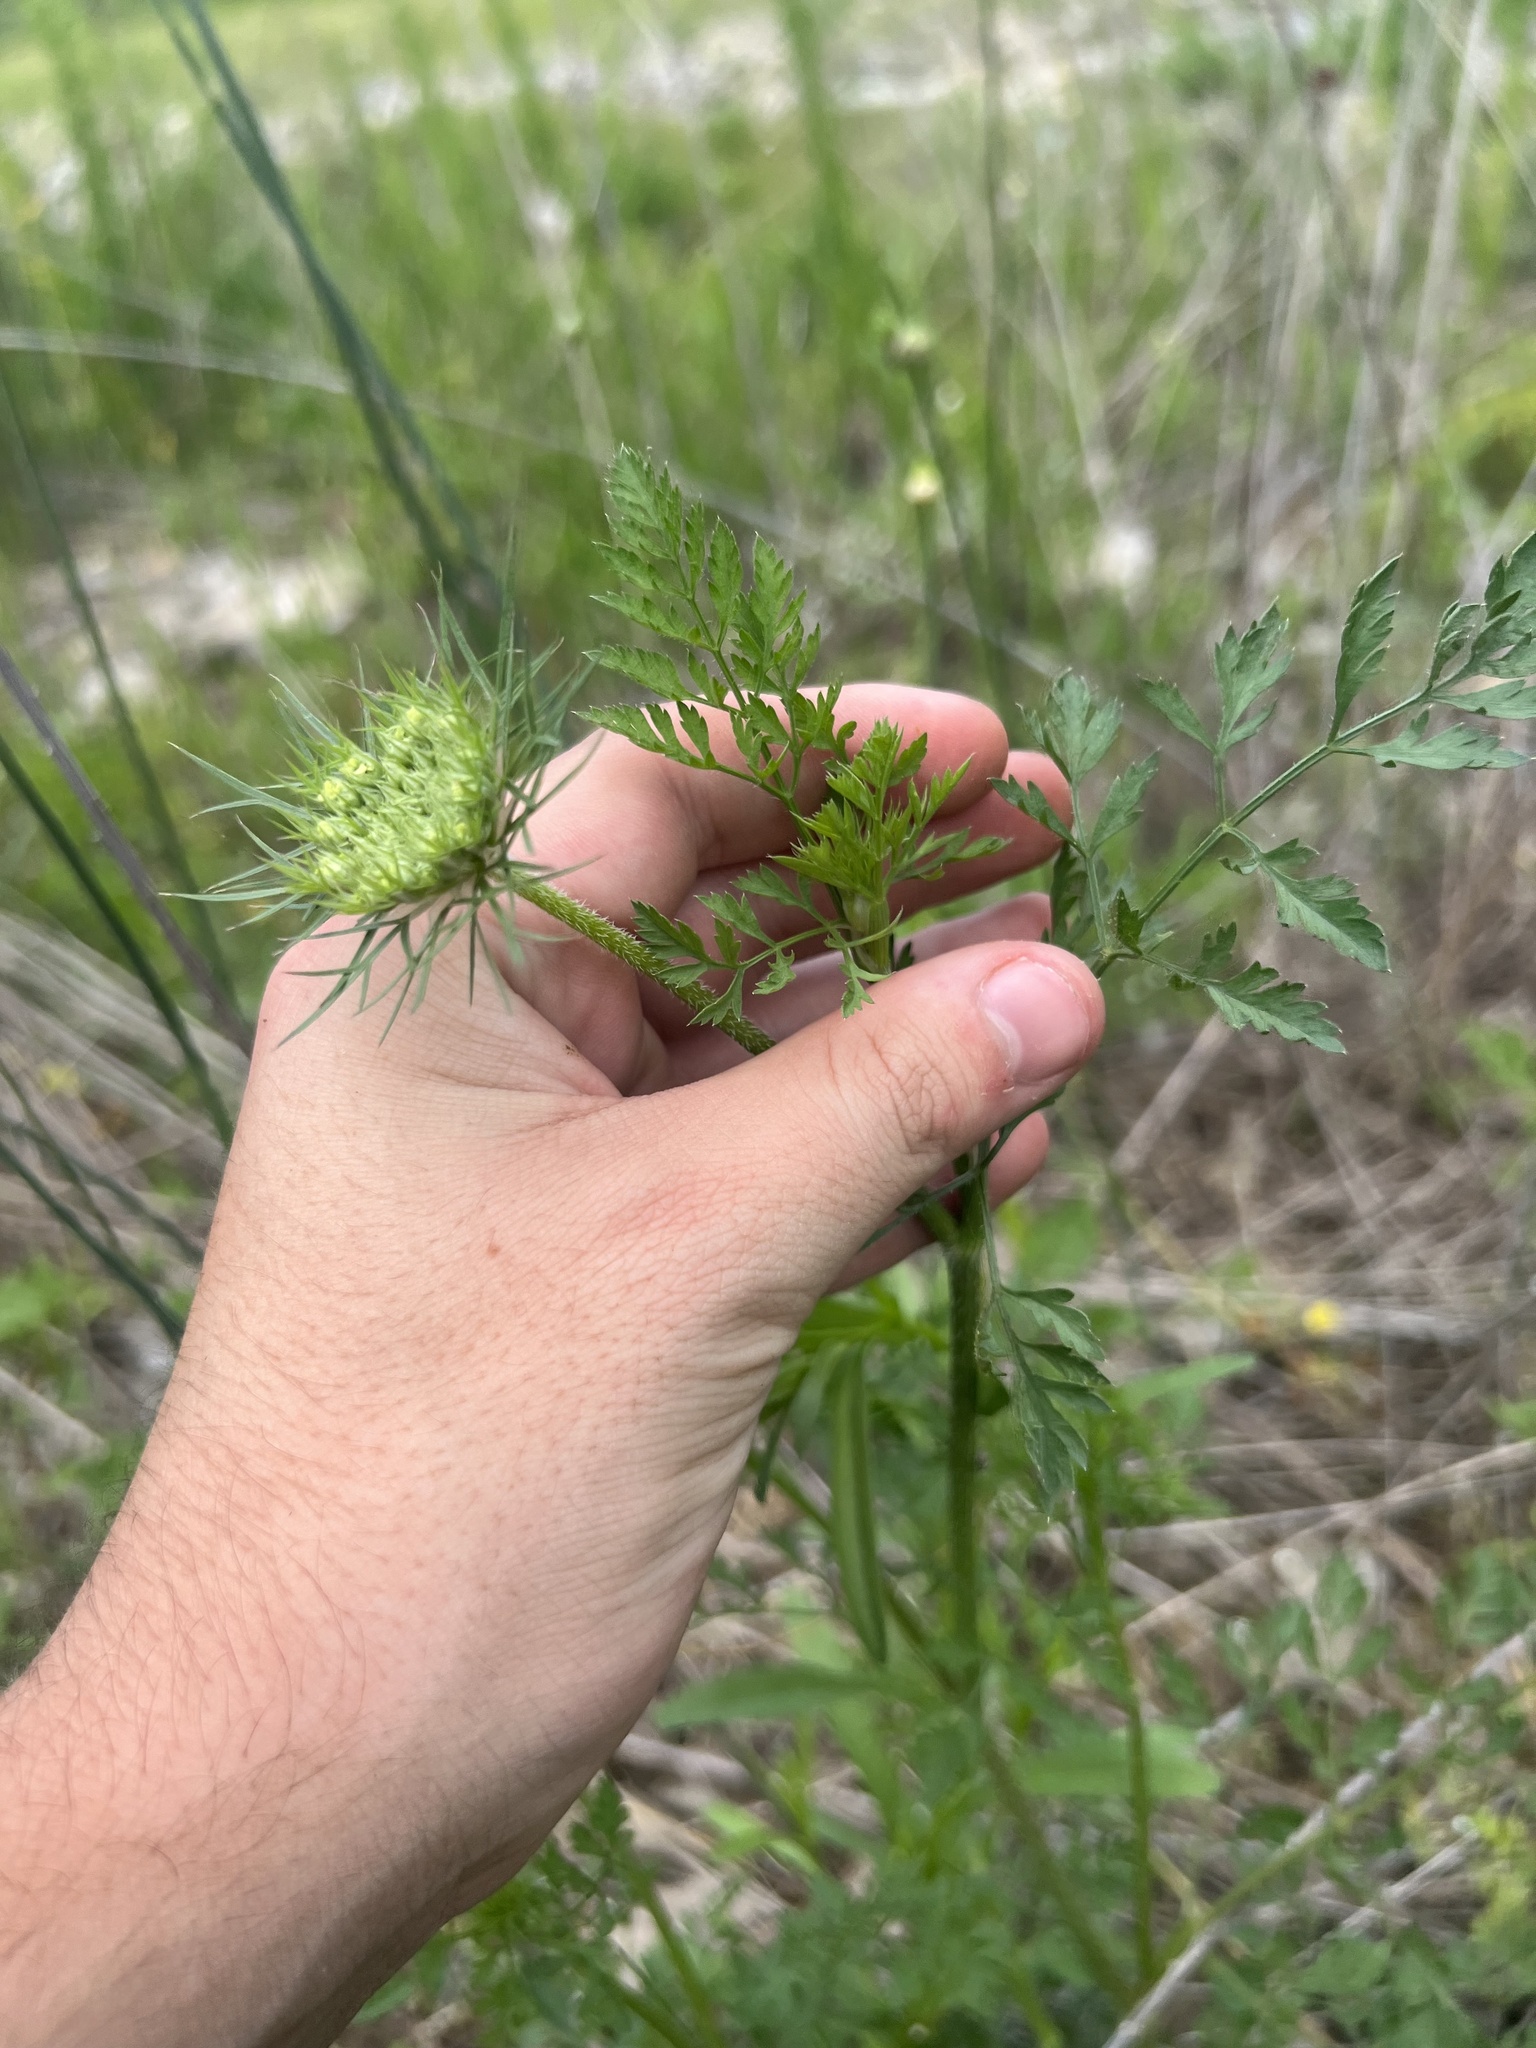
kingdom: Plantae
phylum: Tracheophyta
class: Magnoliopsida
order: Apiales
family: Apiaceae
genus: Daucus
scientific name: Daucus carota
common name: Wild carrot
